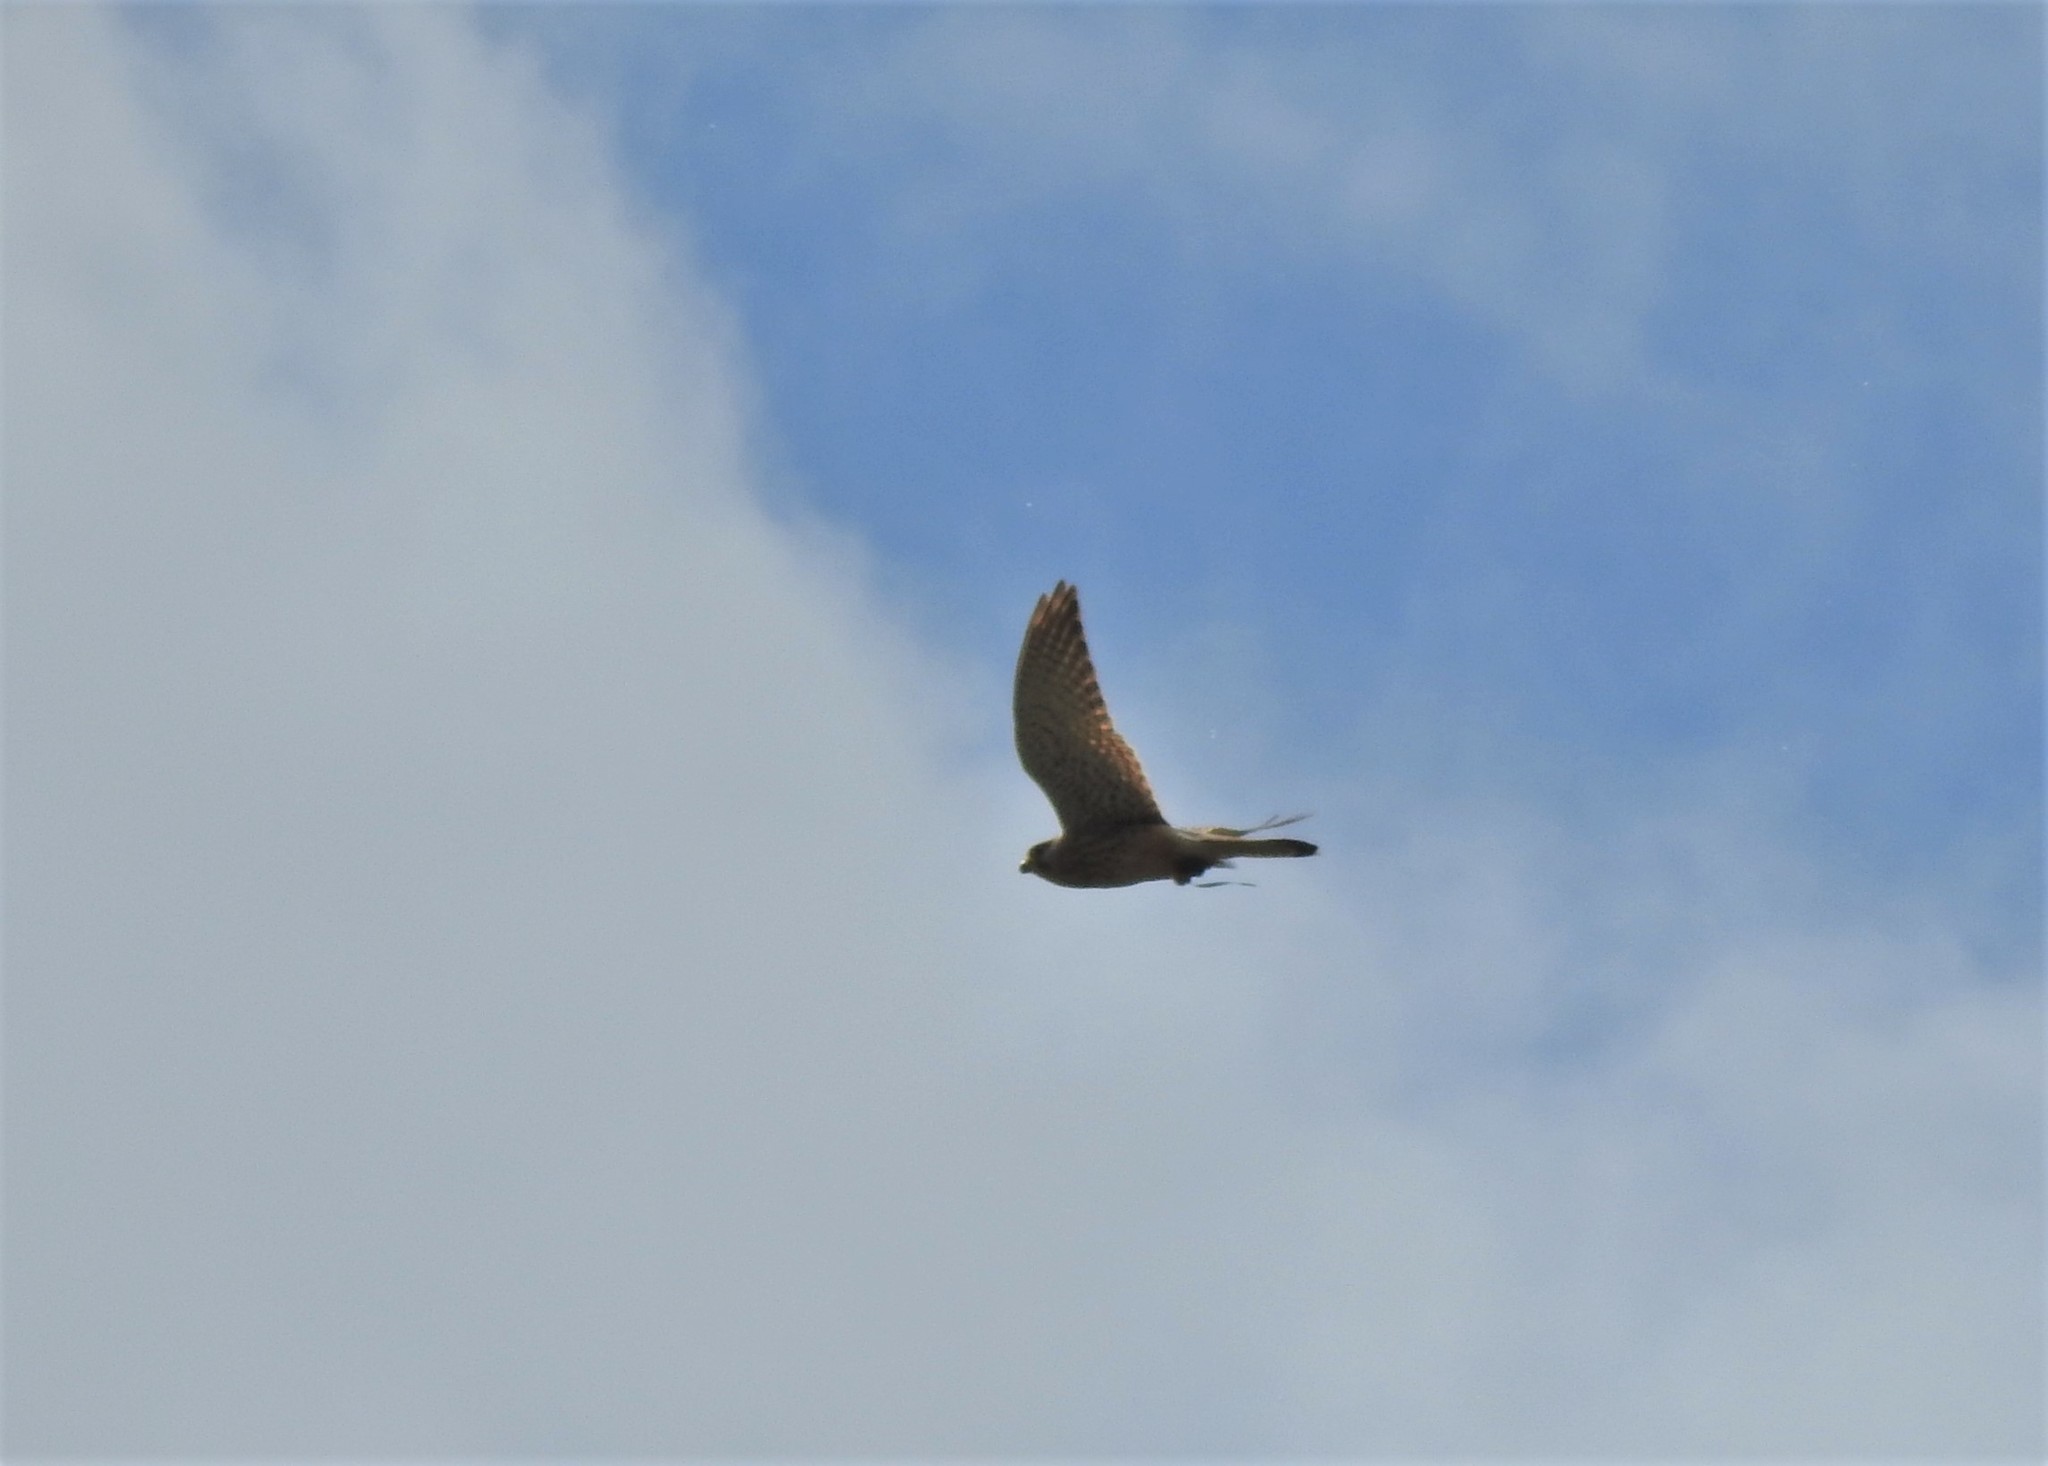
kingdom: Animalia
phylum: Chordata
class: Aves
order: Falconiformes
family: Falconidae
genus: Falco
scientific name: Falco tinnunculus
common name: Common kestrel
